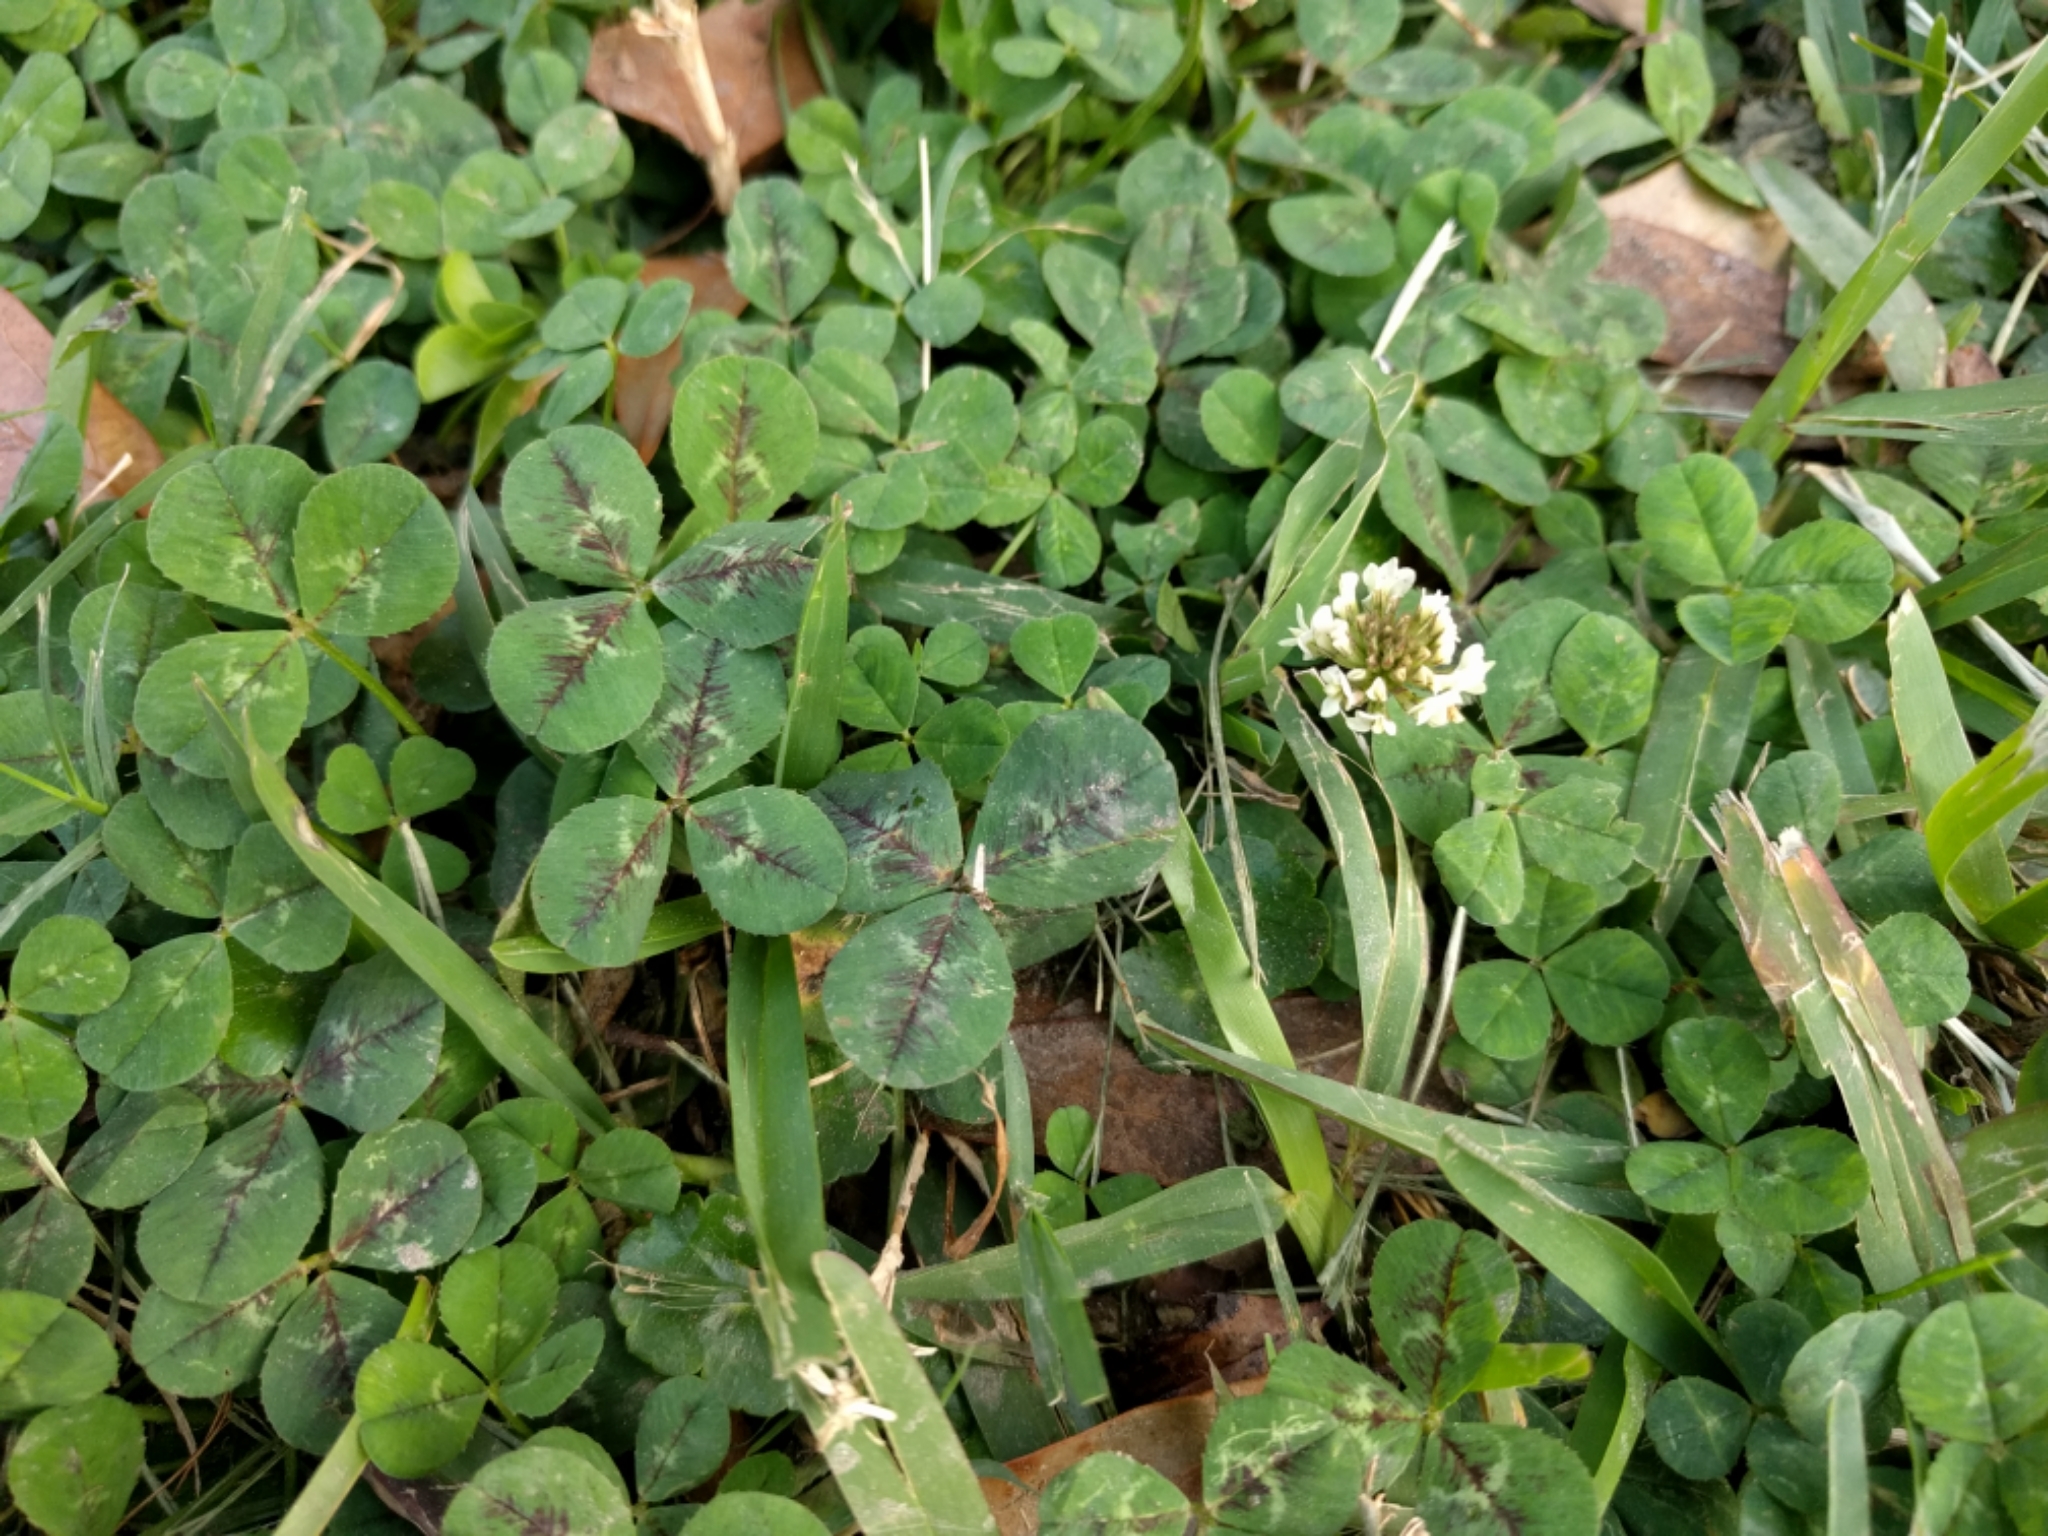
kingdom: Plantae
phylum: Tracheophyta
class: Magnoliopsida
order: Fabales
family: Fabaceae
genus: Trifolium
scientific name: Trifolium repens
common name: White clover
